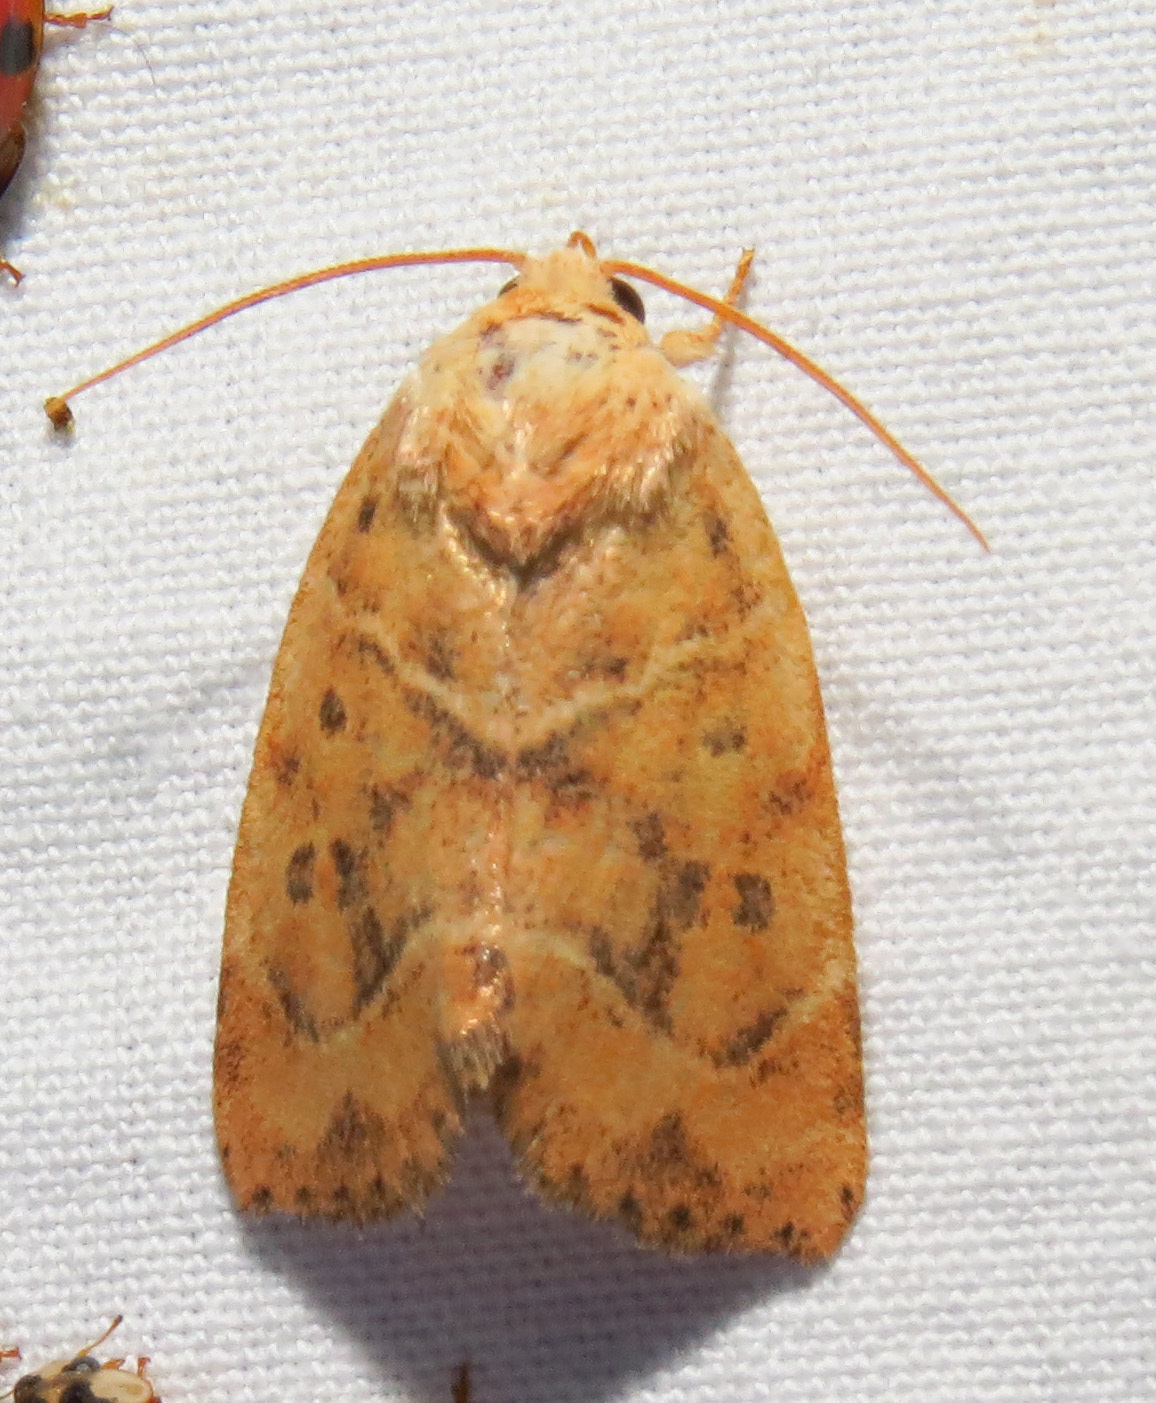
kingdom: Animalia
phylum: Arthropoda
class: Insecta
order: Lepidoptera
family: Noctuidae
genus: Cosmia
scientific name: Cosmia calami
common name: American dun-bar moth
